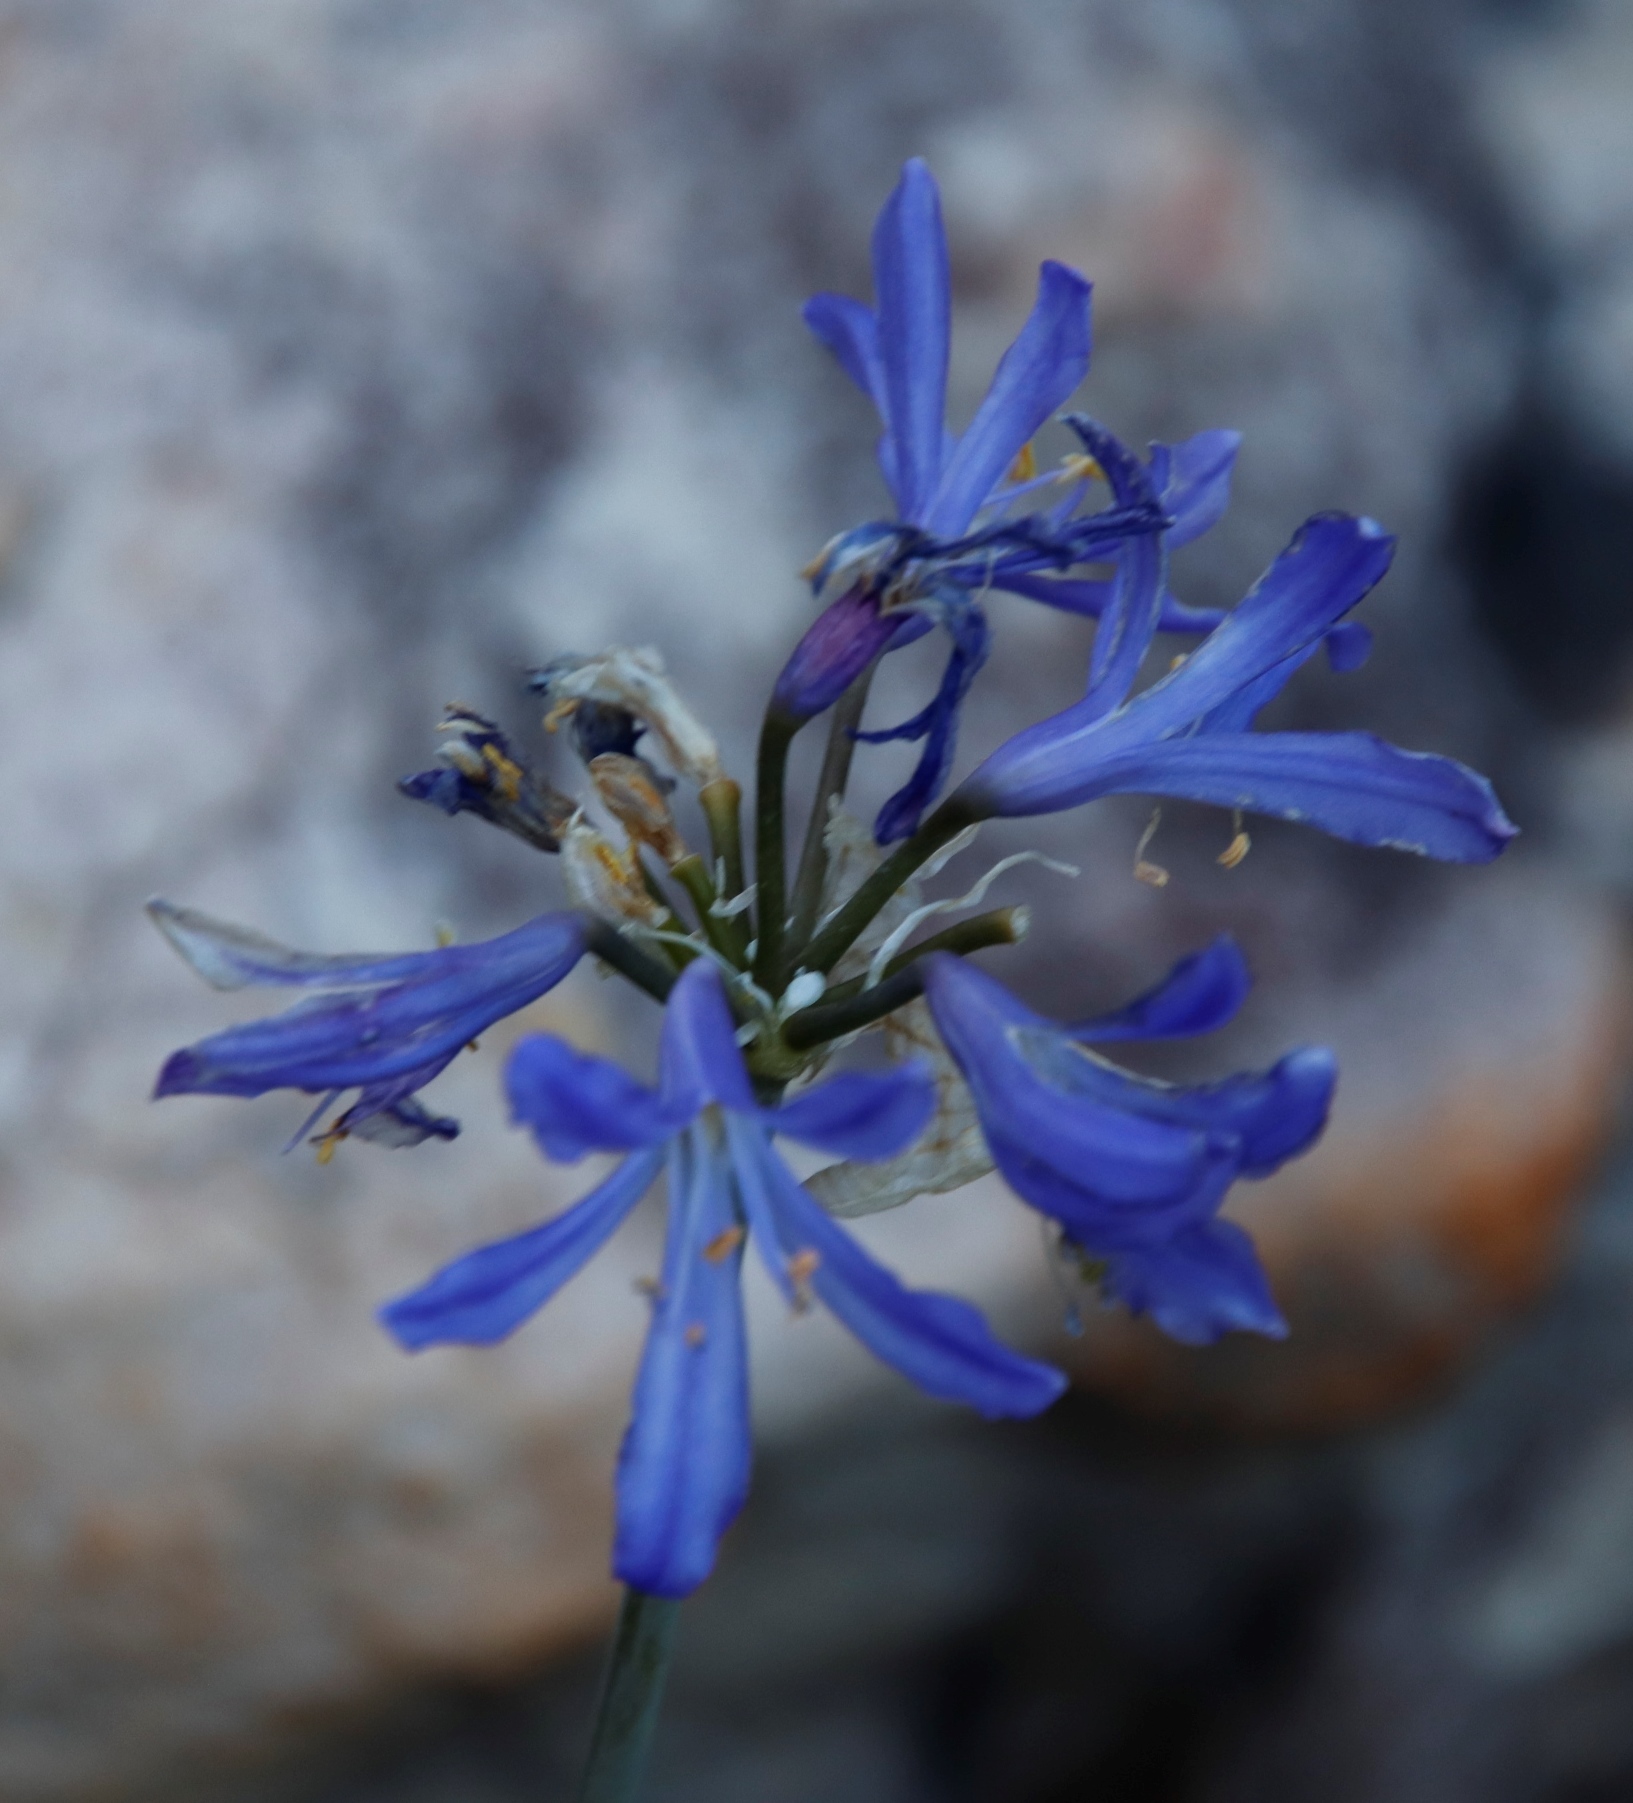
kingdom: Plantae
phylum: Tracheophyta
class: Liliopsida
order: Asparagales
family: Amaryllidaceae
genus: Agapanthus
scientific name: Agapanthus africanus
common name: Lily-of-the-nile
